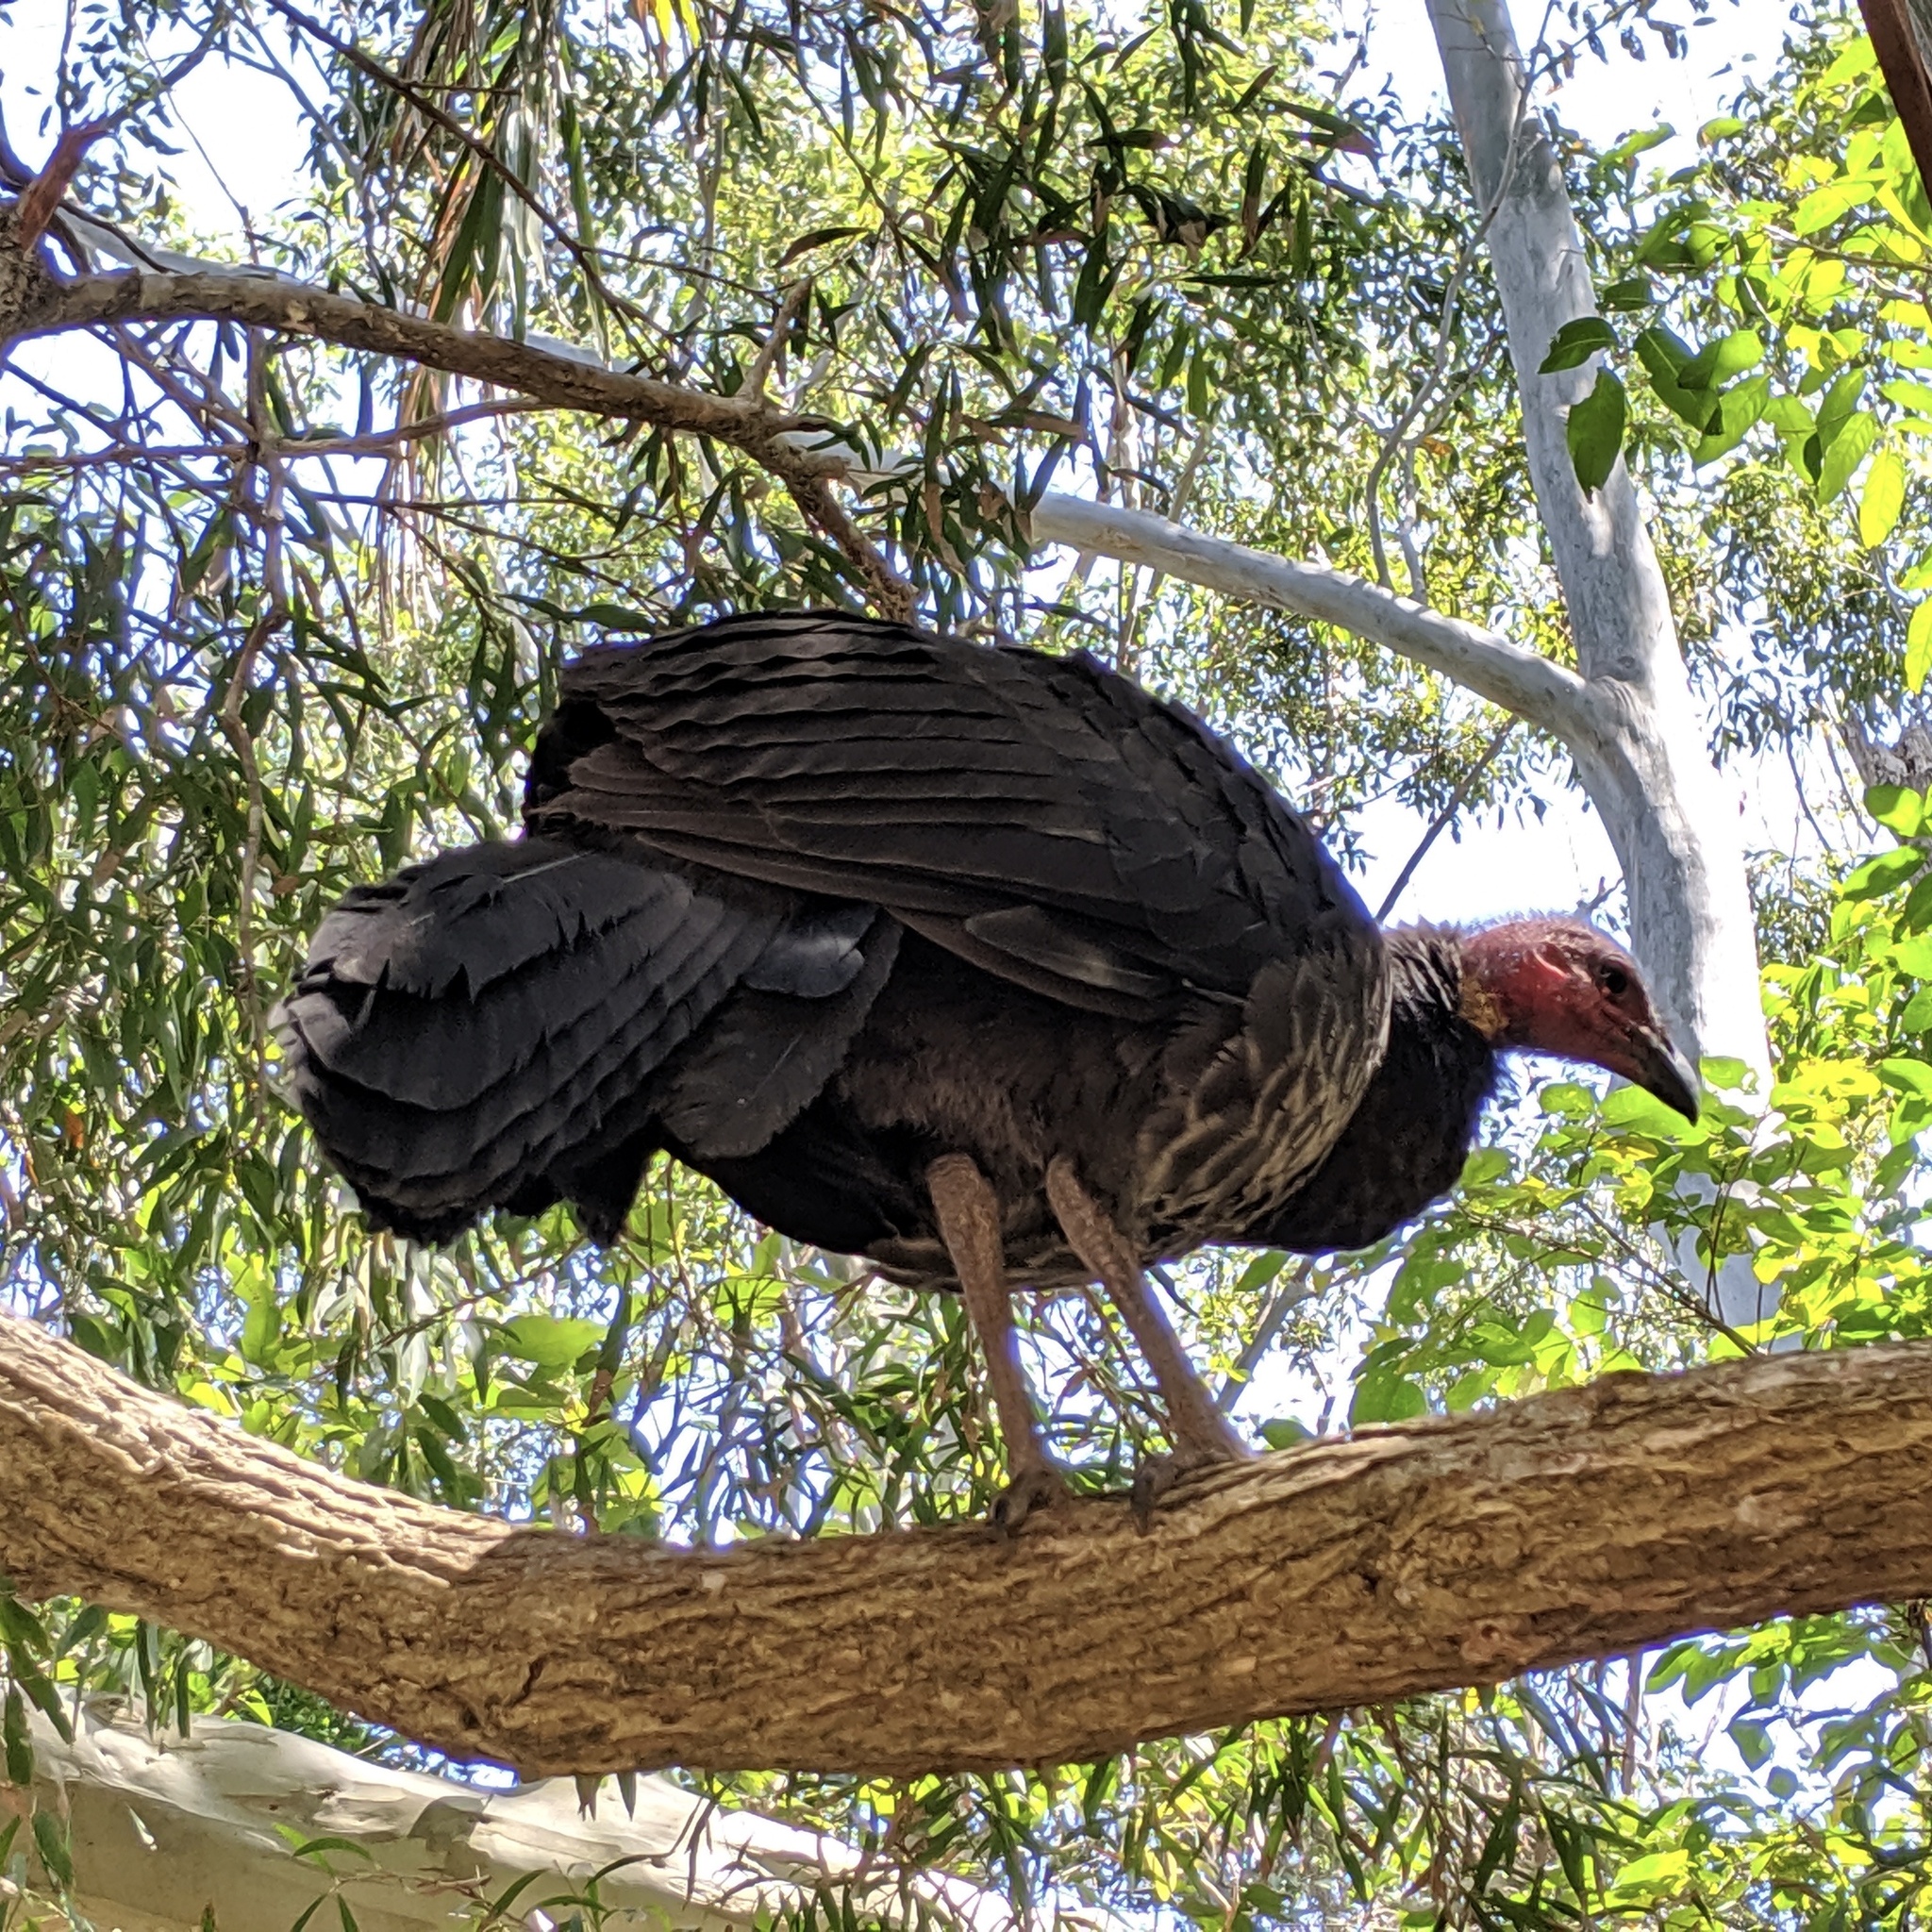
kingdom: Animalia
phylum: Chordata
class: Aves
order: Galliformes
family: Megapodiidae
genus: Alectura
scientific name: Alectura lathami
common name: Australian brushturkey
